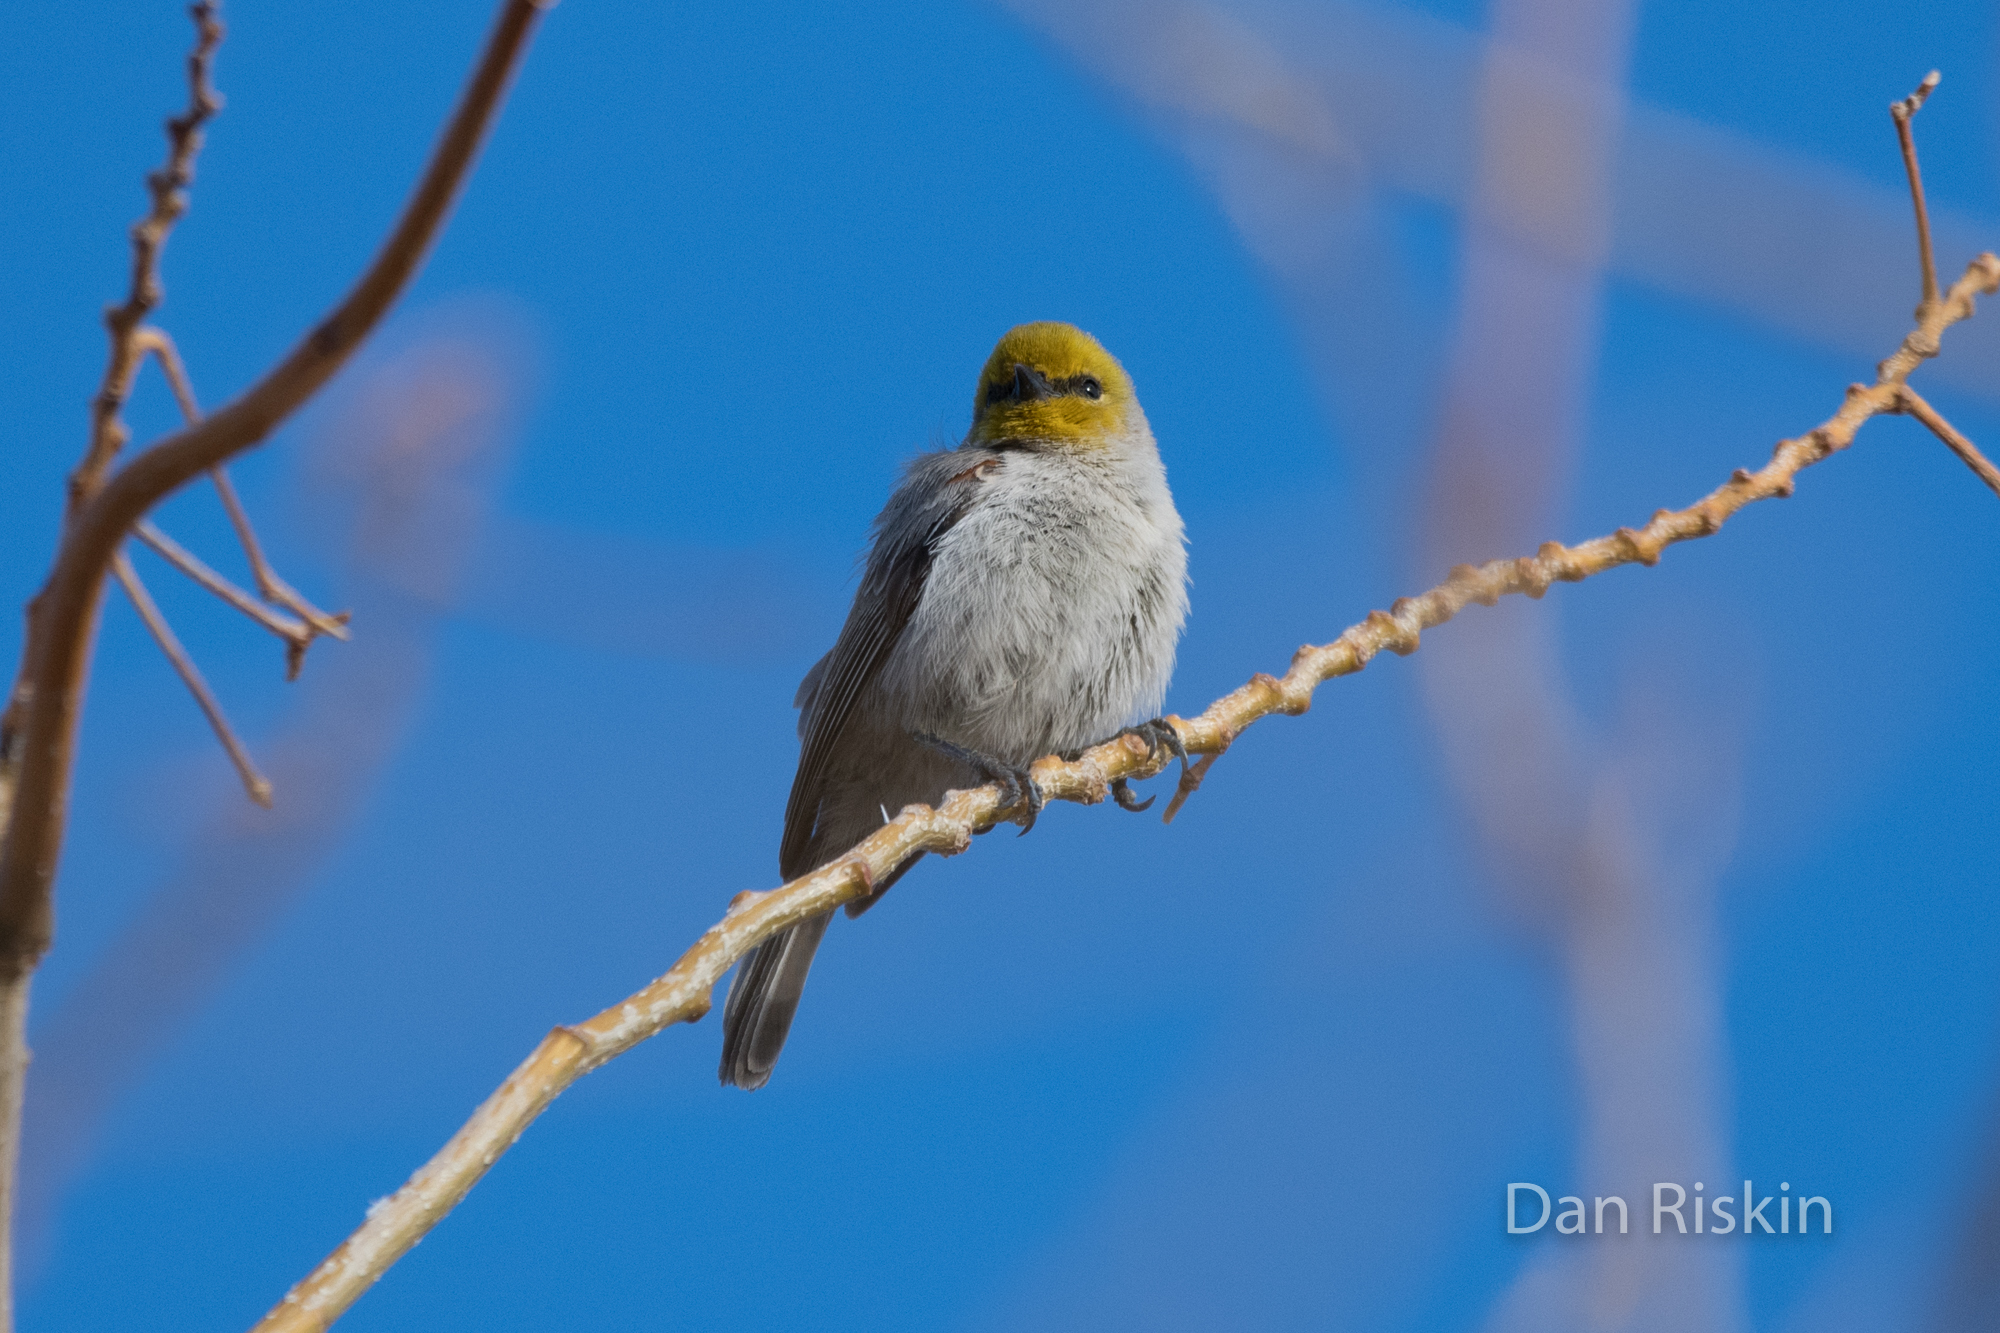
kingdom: Animalia
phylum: Chordata
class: Aves
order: Passeriformes
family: Remizidae
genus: Auriparus
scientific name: Auriparus flaviceps
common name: Verdin
